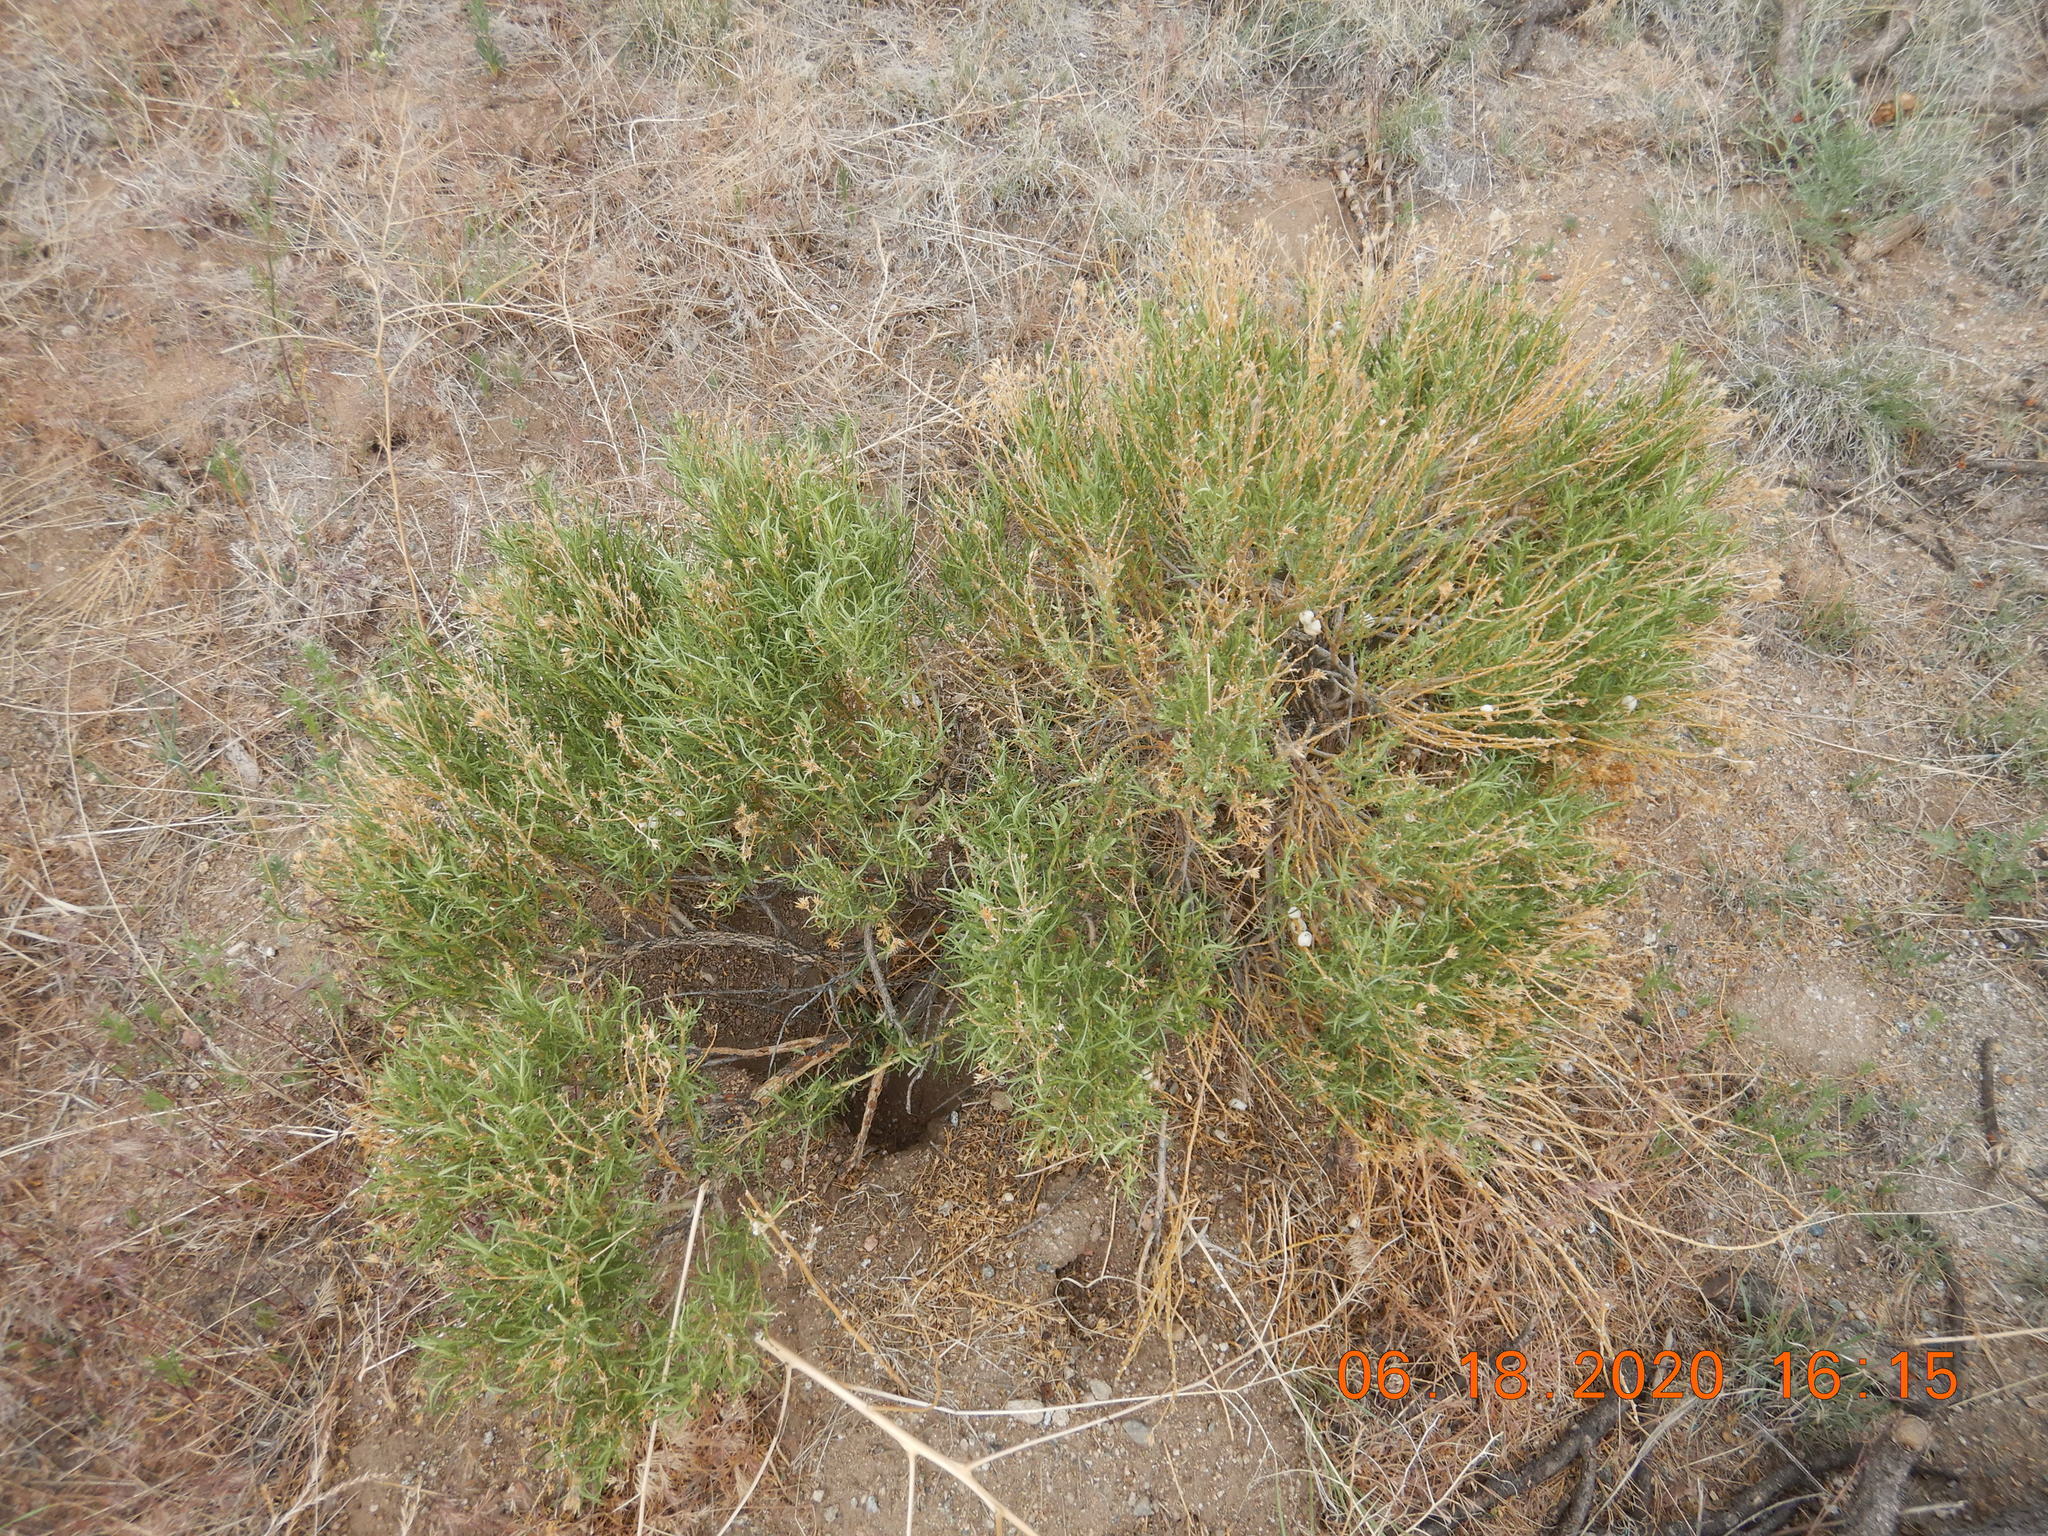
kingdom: Plantae
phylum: Tracheophyta
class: Magnoliopsida
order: Asterales
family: Asteraceae
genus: Chrysothamnus
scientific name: Chrysothamnus viscidiflorus
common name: Yellow rabbitbrush
